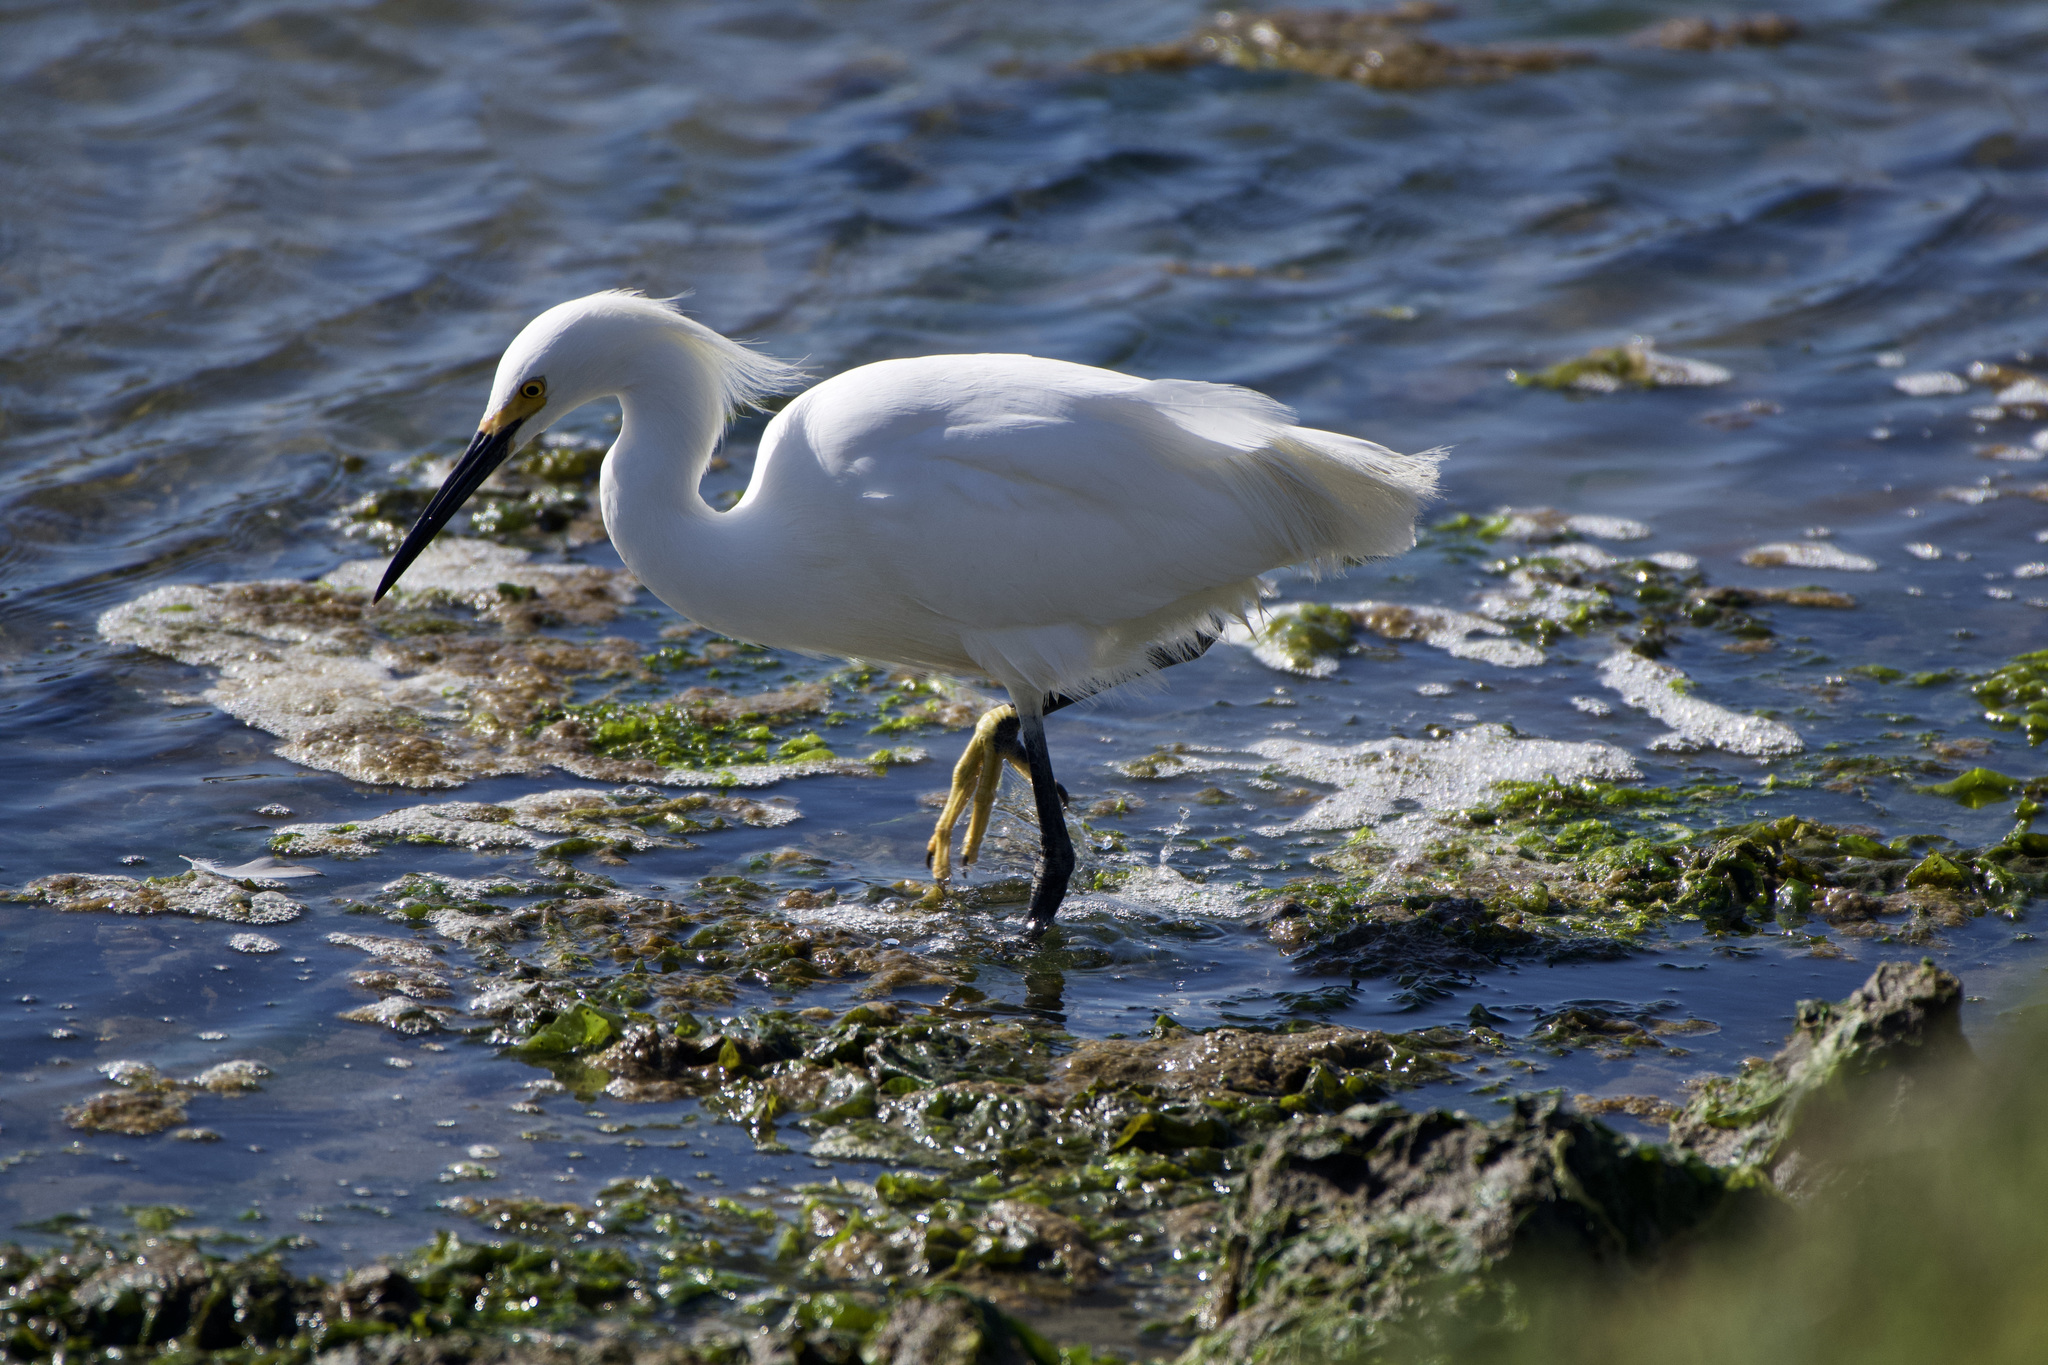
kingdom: Animalia
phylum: Chordata
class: Aves
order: Pelecaniformes
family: Ardeidae
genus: Egretta
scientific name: Egretta thula
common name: Snowy egret
